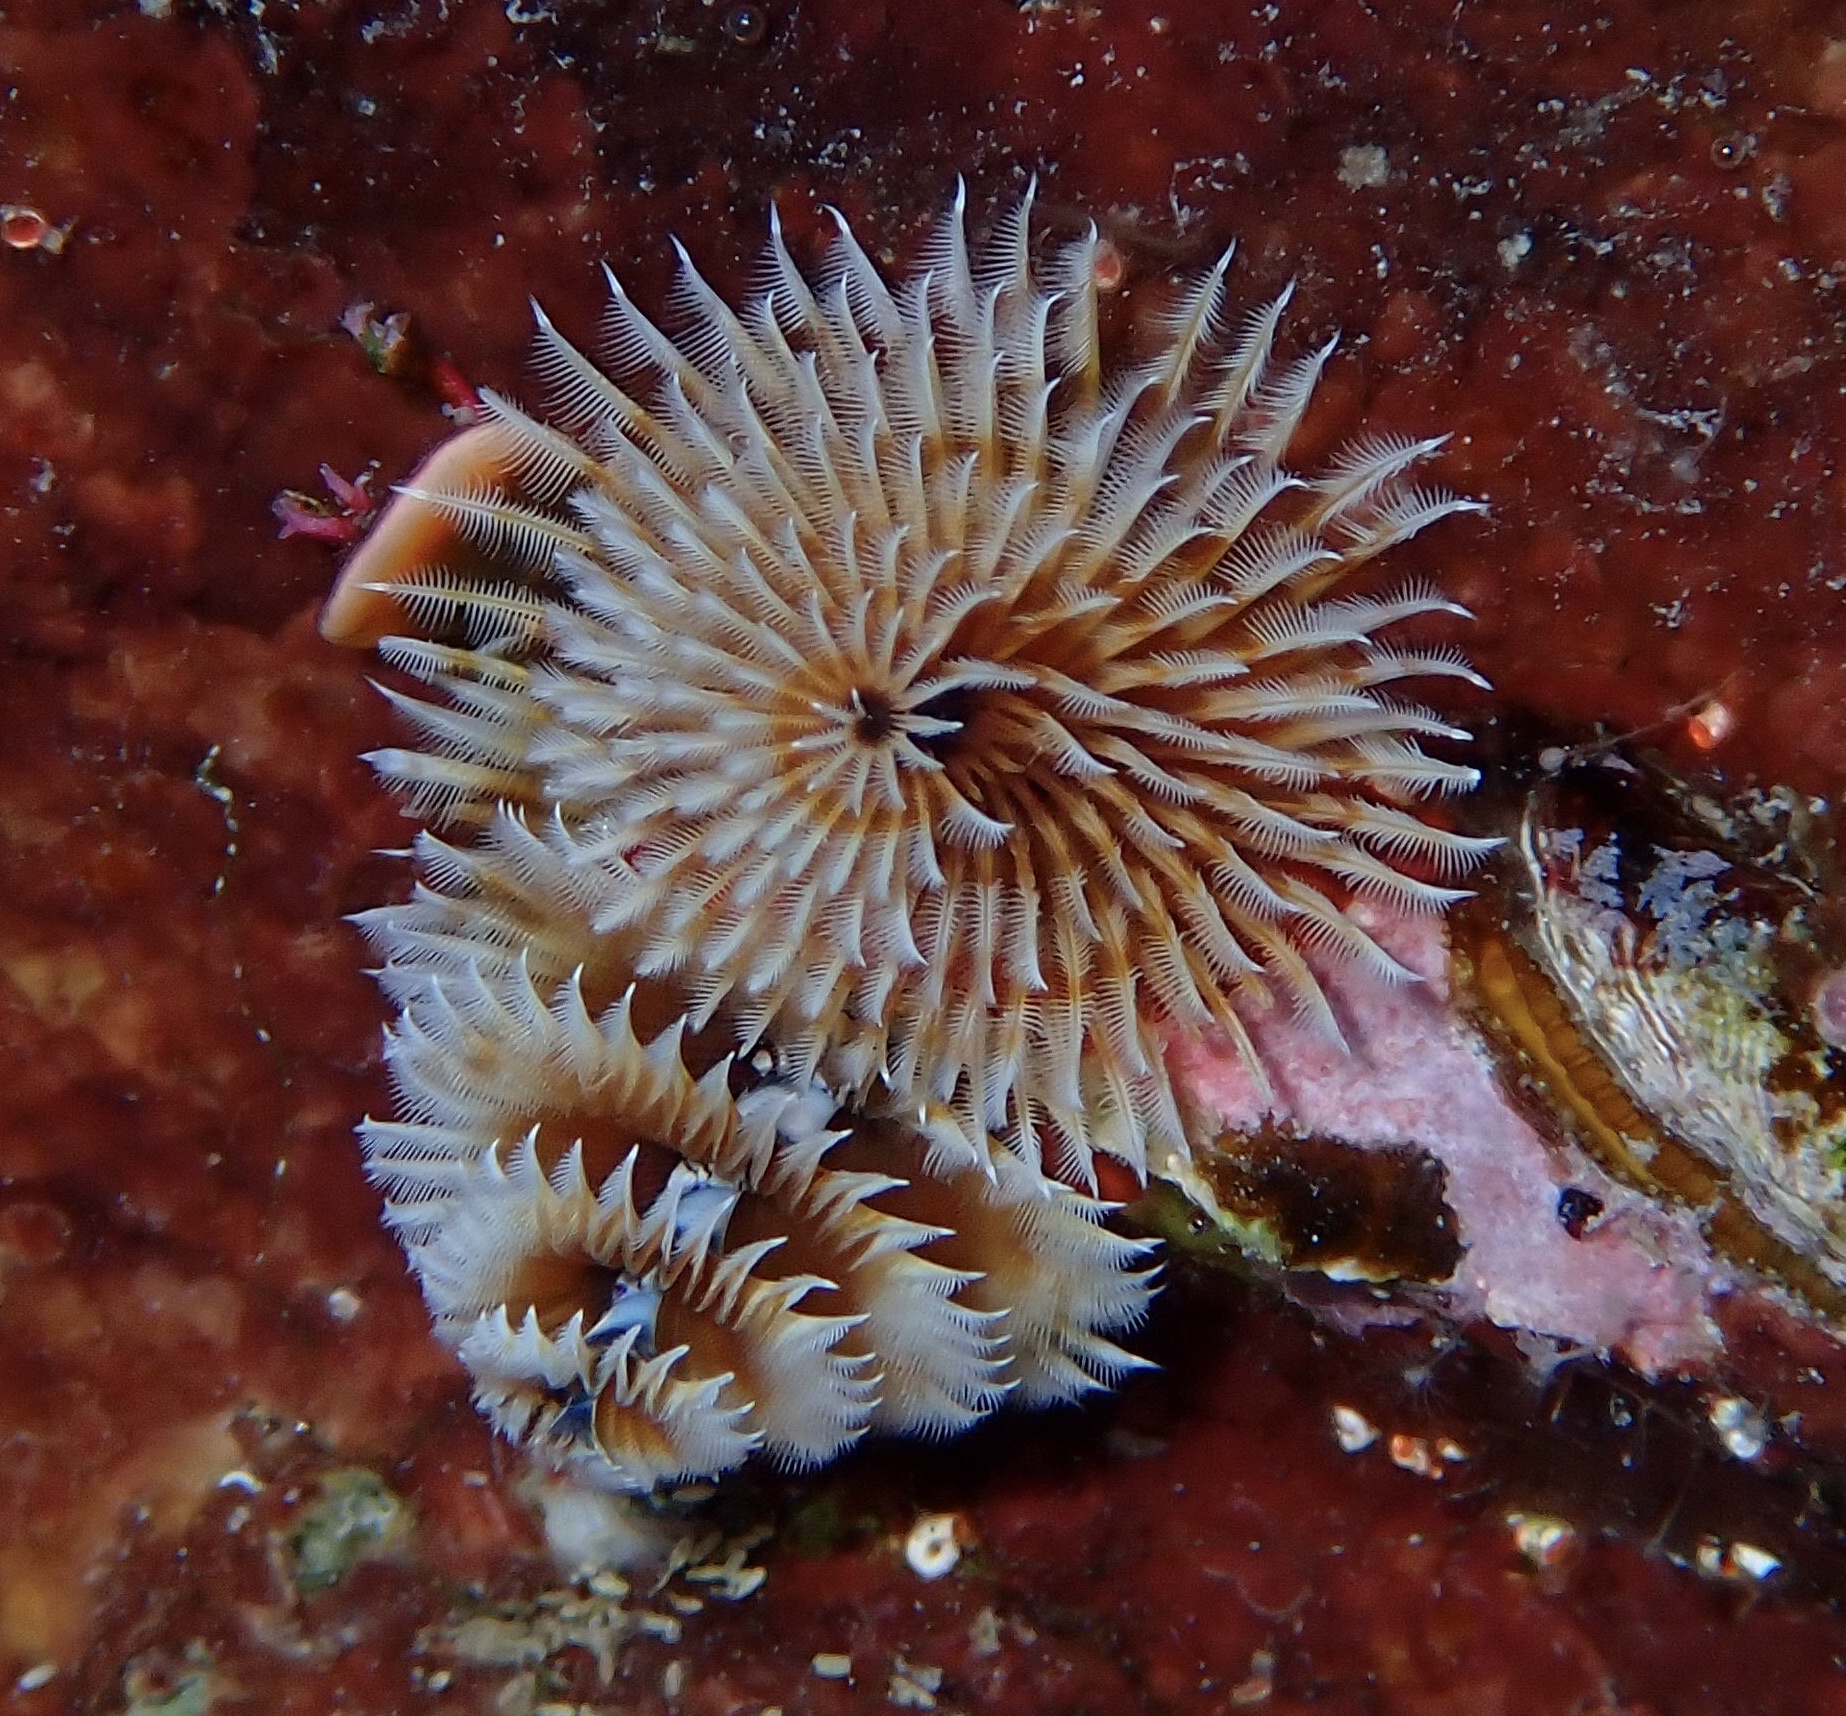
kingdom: Animalia
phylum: Annelida
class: Polychaeta
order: Sabellida
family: Serpulidae
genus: Spirobranchus
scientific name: Spirobranchus giganteus
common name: Christmas tree worm
